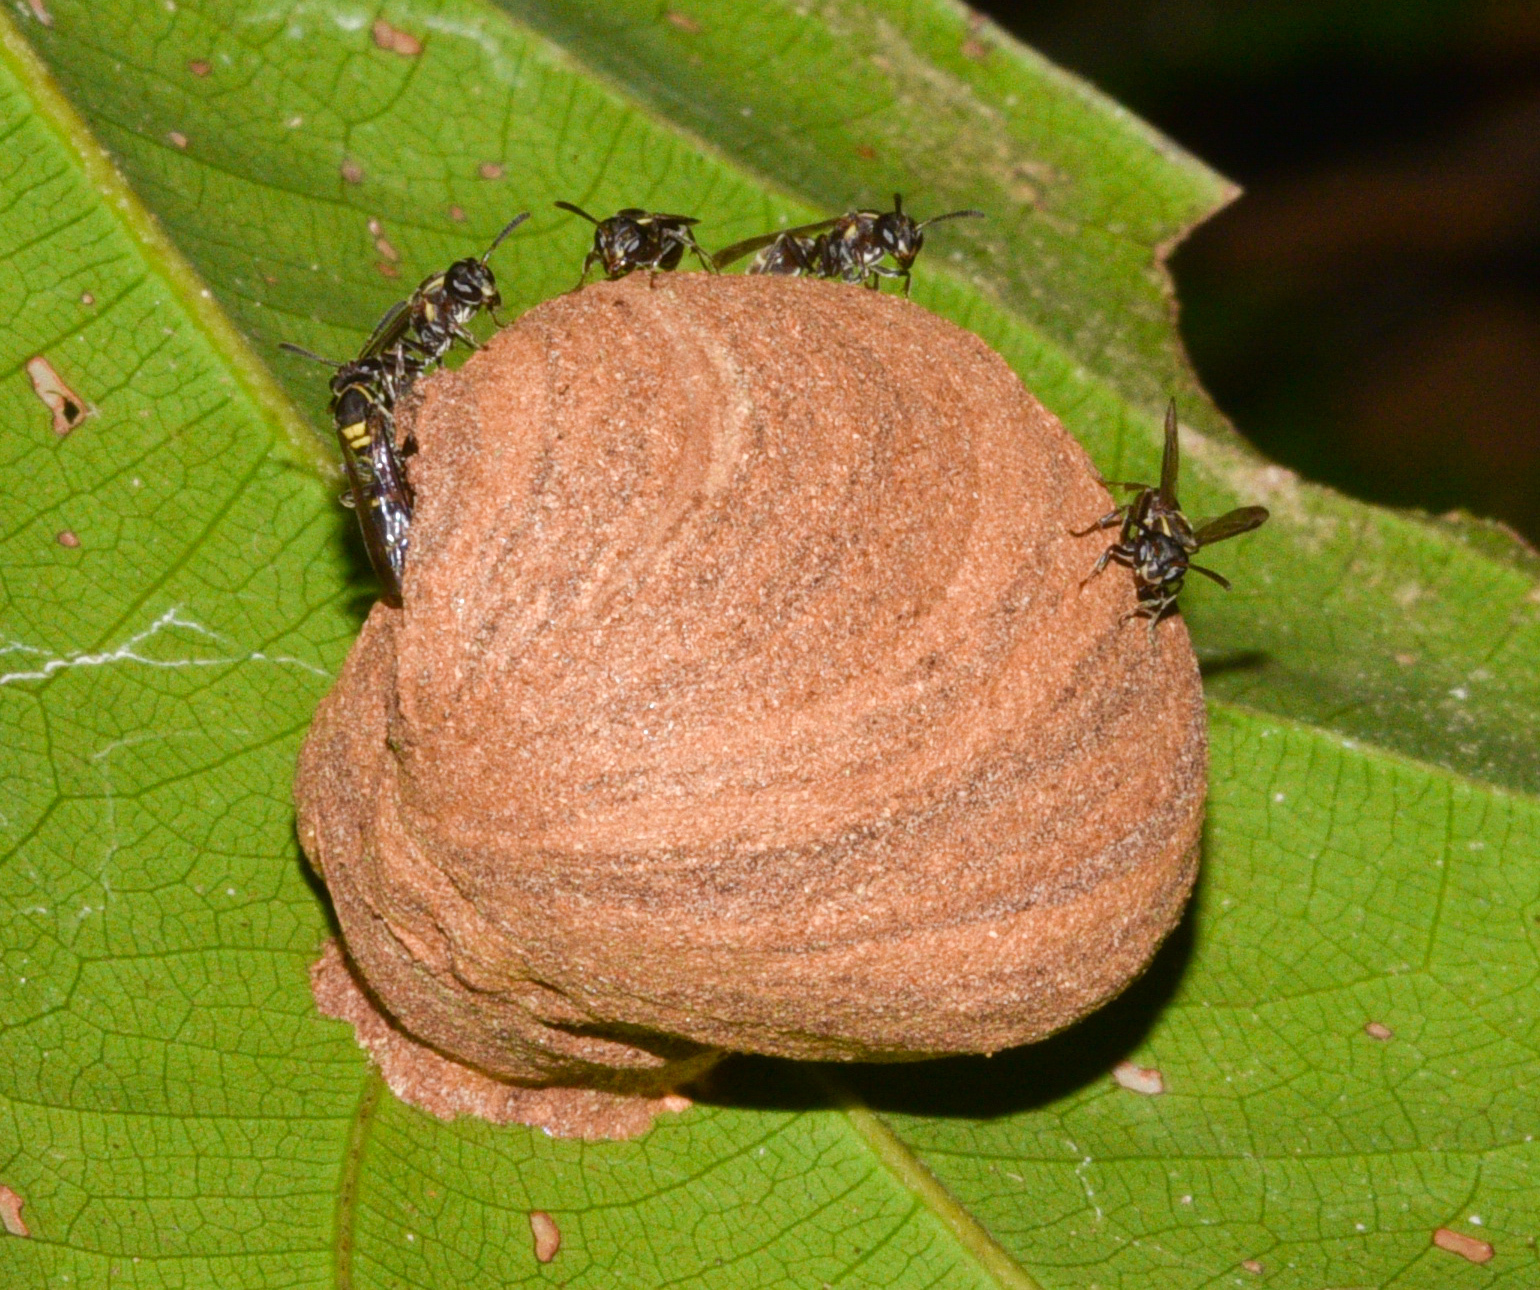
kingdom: Animalia
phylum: Arthropoda
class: Insecta
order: Hymenoptera
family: Eumenidae
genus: Polybia
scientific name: Polybia occidentalis
